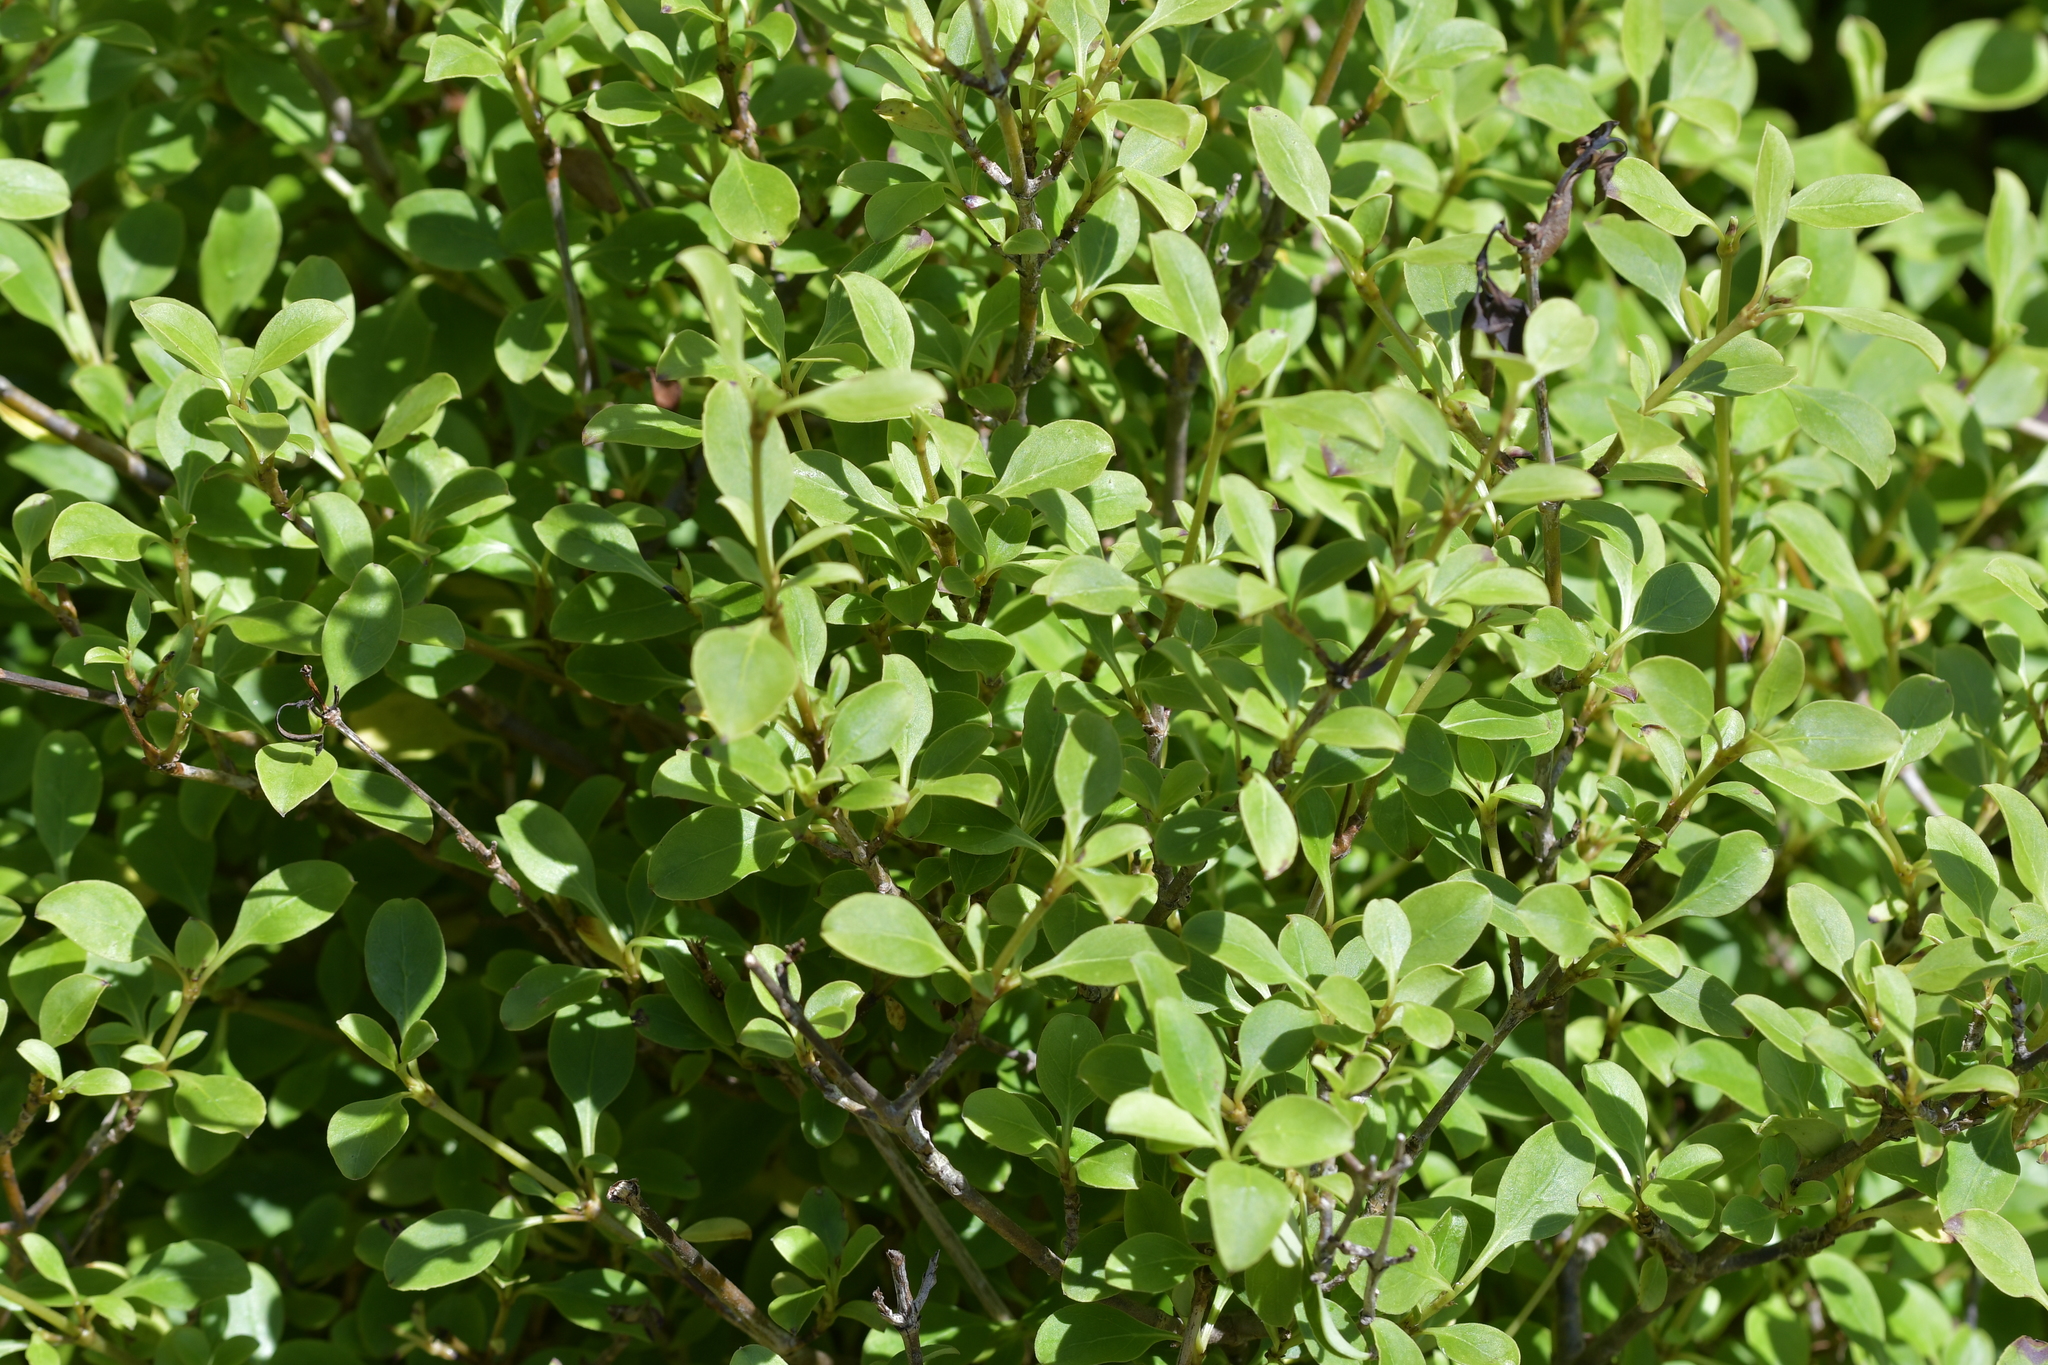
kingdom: Plantae
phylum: Tracheophyta
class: Magnoliopsida
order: Gentianales
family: Rubiaceae
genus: Coprosma
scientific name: Coprosma foetidissima
